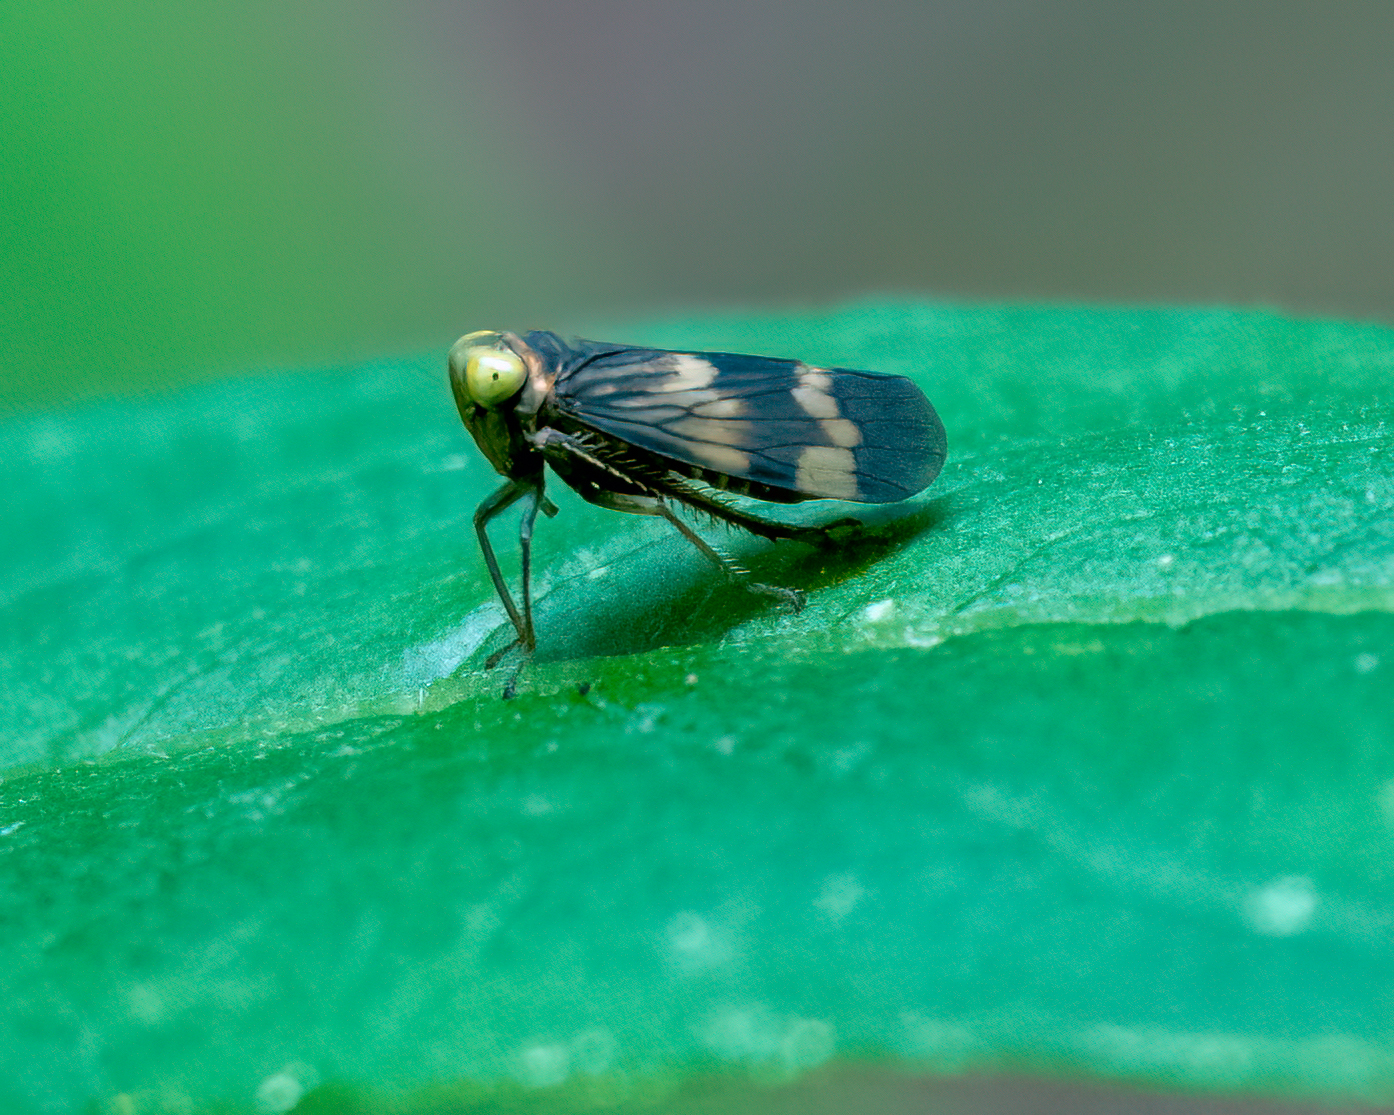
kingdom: Animalia
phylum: Arthropoda
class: Insecta
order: Hemiptera
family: Cicadellidae
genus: Jikradia
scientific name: Jikradia olitoria
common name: Coppery leafhopper
